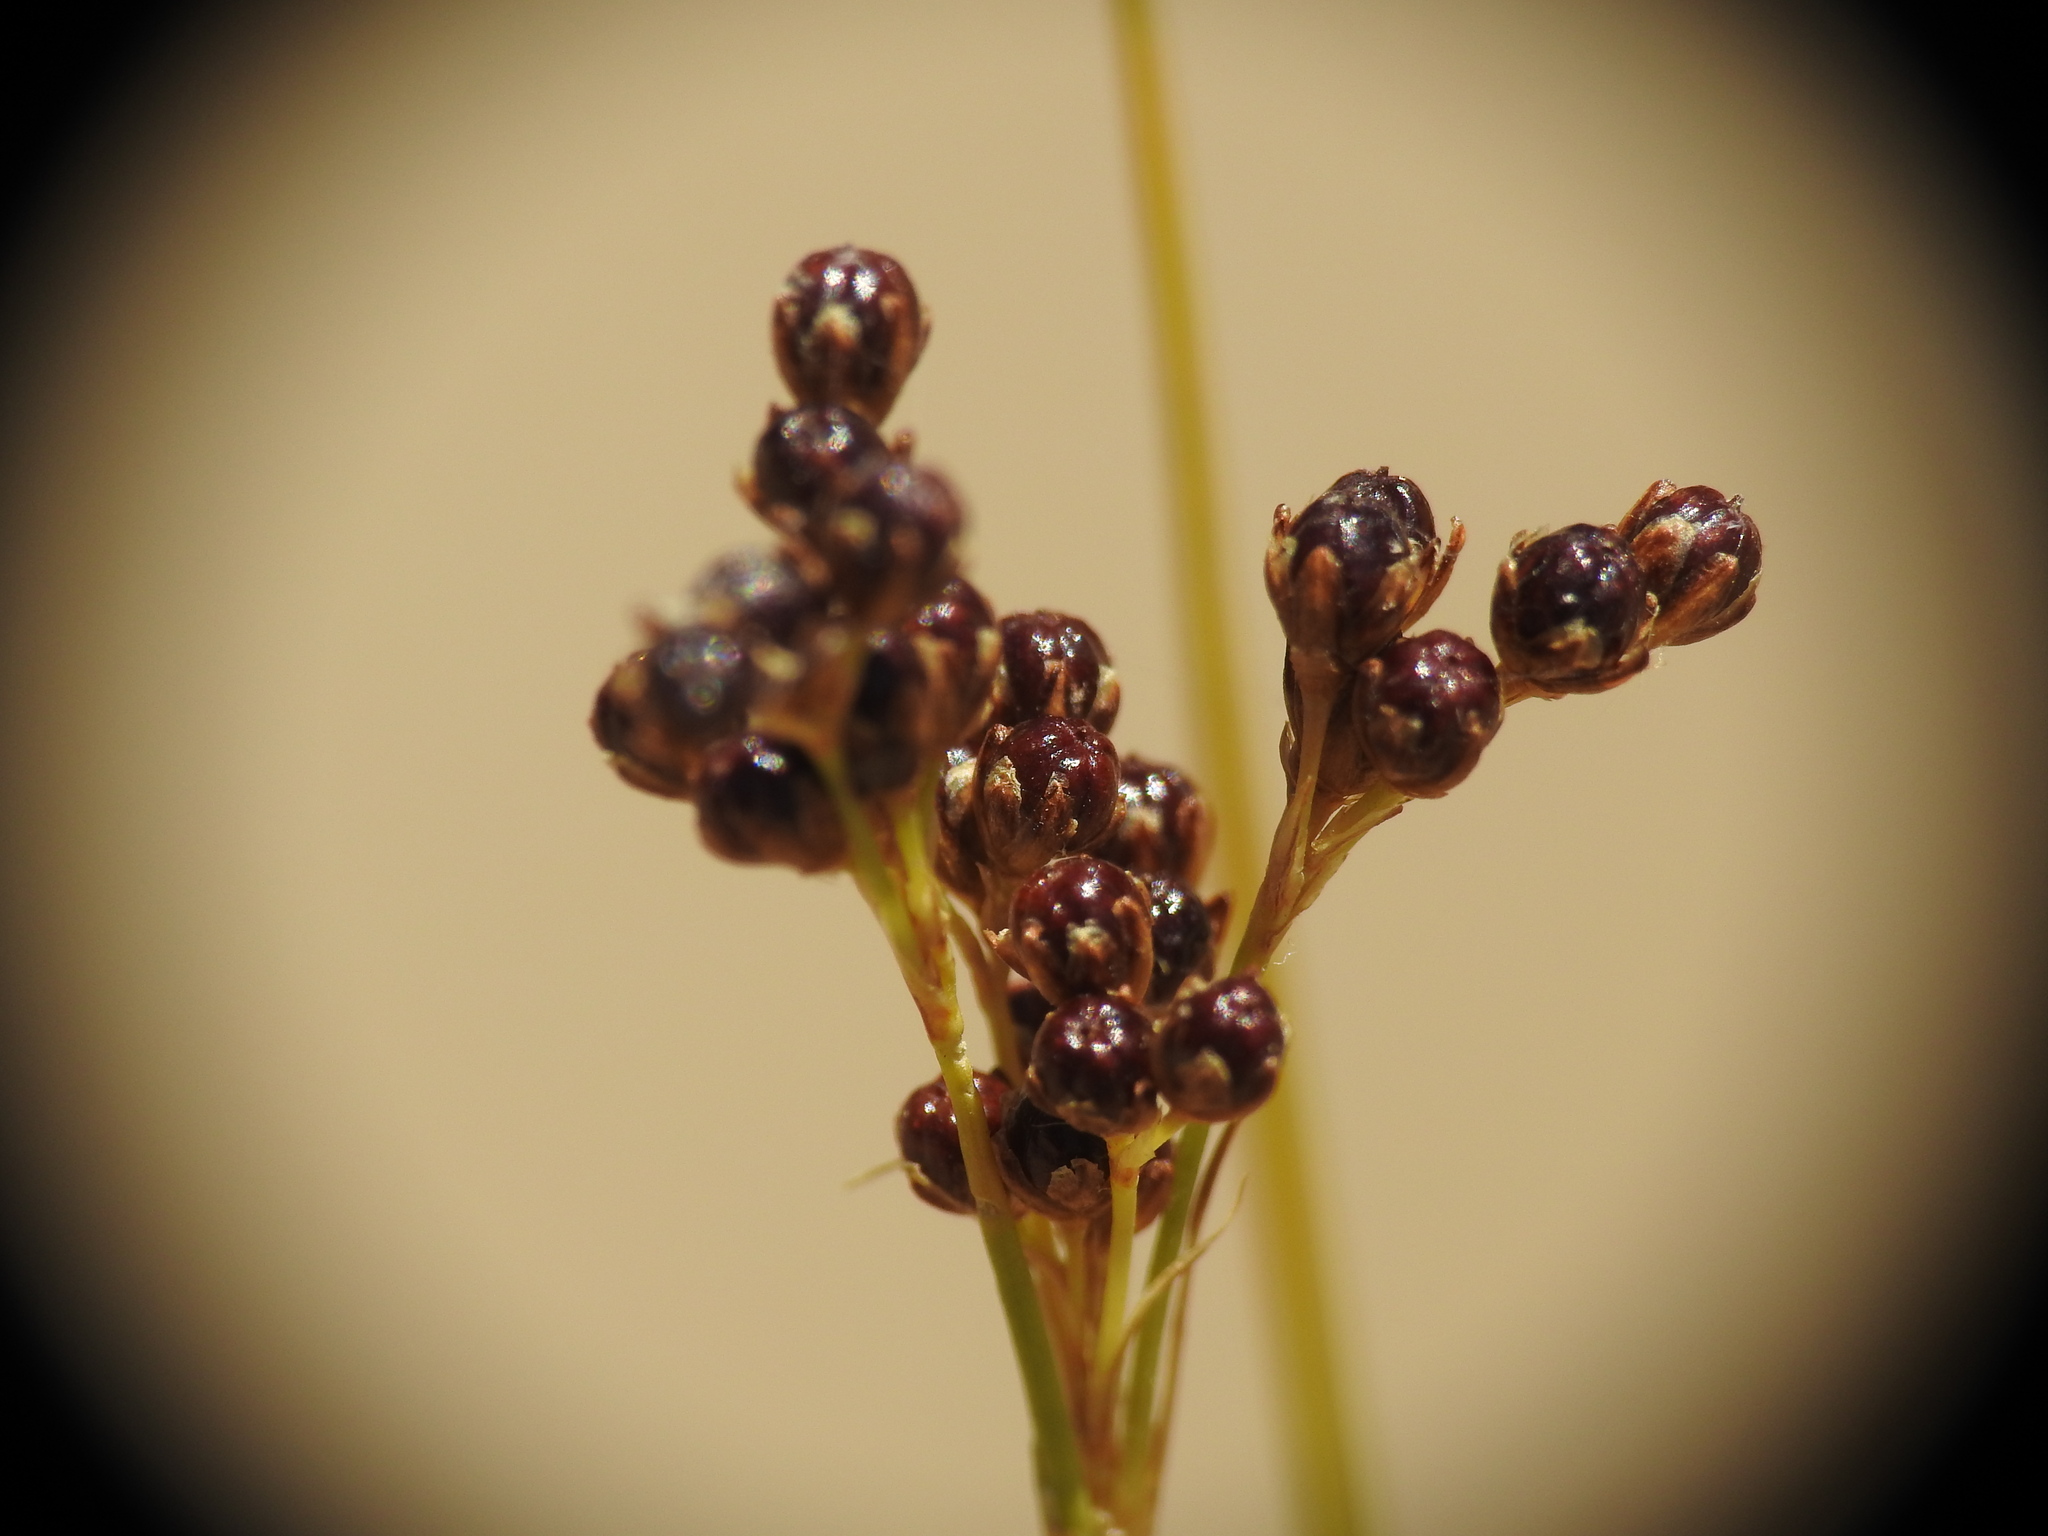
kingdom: Plantae
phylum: Tracheophyta
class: Liliopsida
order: Poales
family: Juncaceae
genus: Juncus
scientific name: Juncus compressus
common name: Round-fruited rush
